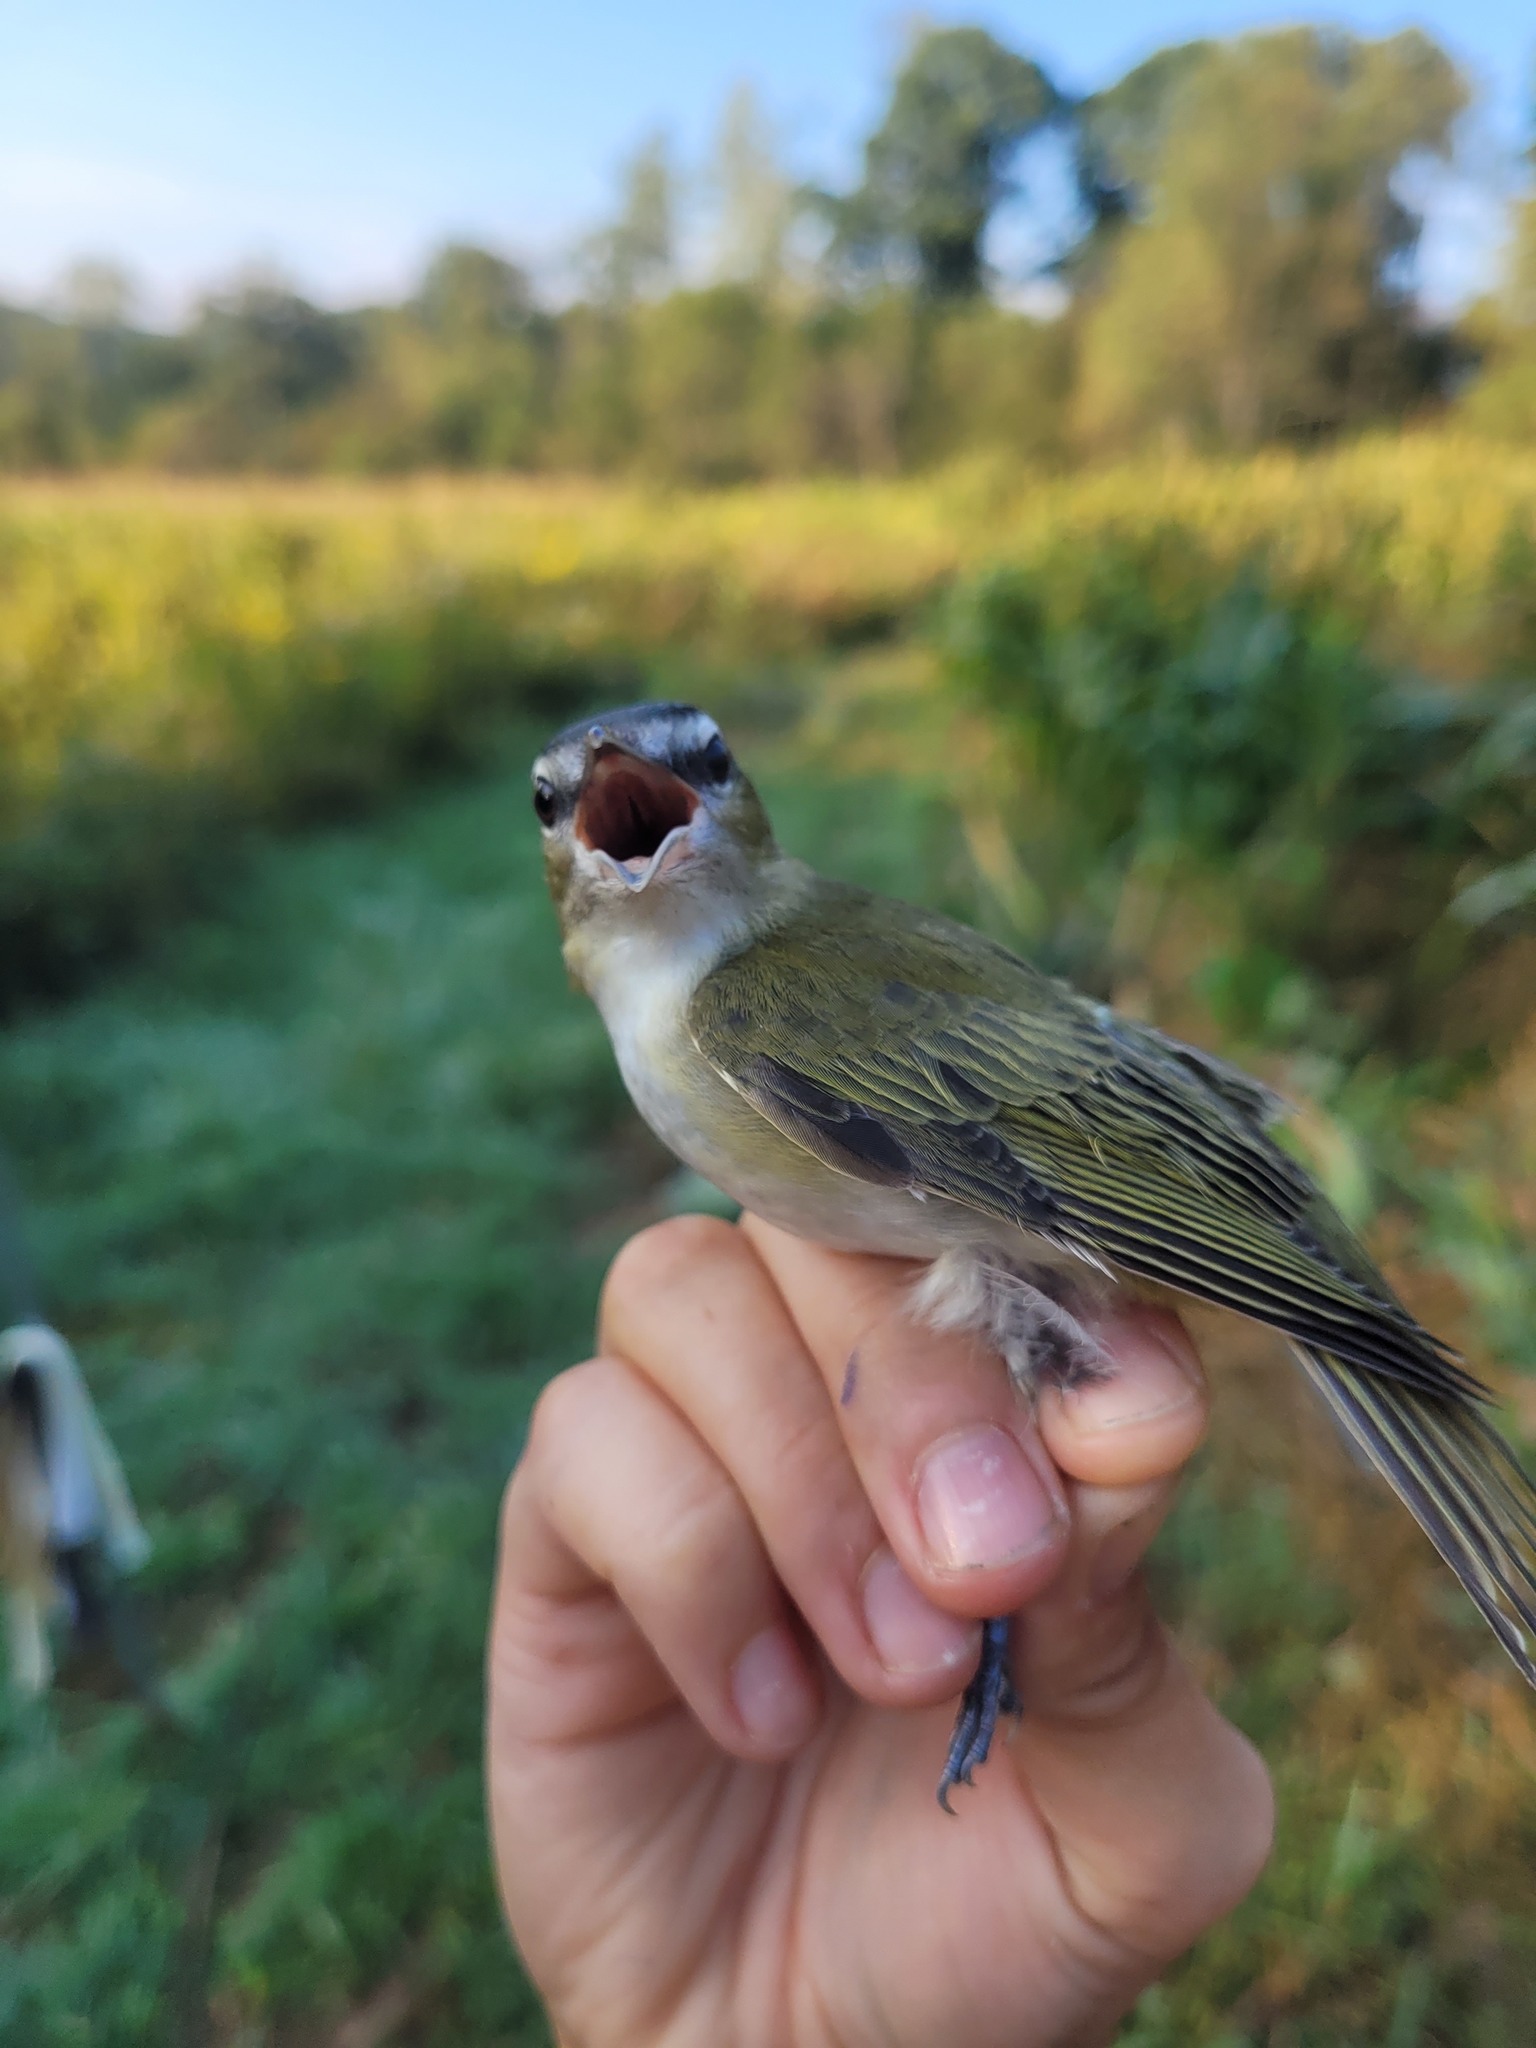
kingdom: Animalia
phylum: Chordata
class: Aves
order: Passeriformes
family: Vireonidae
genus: Vireo
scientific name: Vireo olivaceus
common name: Red-eyed vireo
